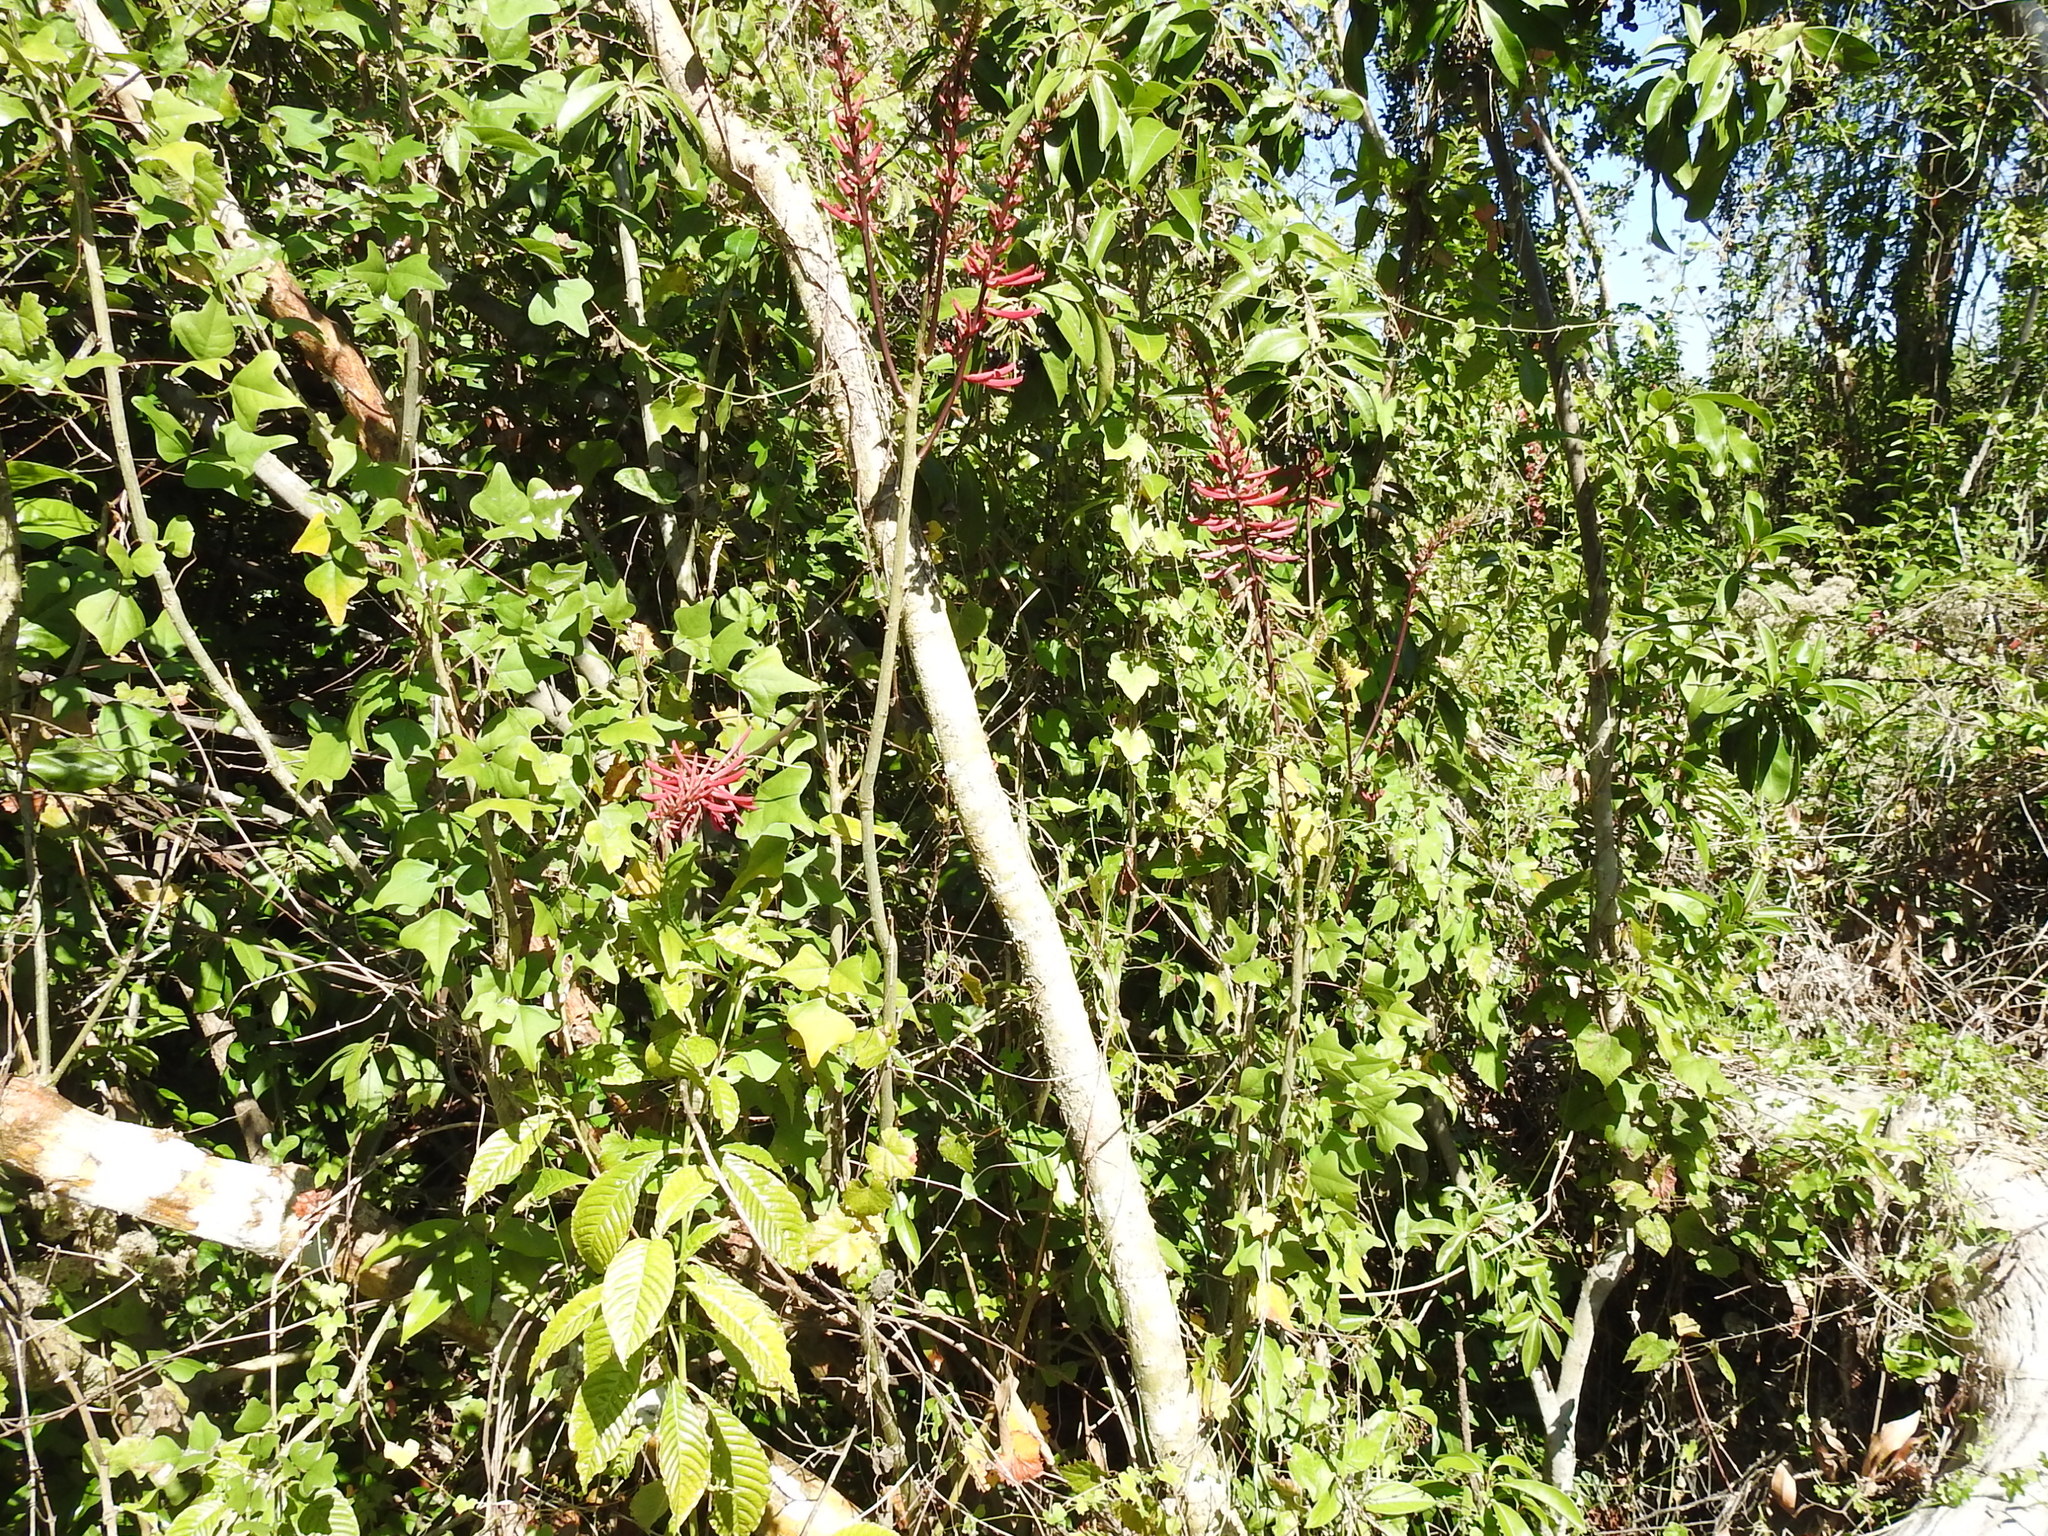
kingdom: Plantae
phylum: Tracheophyta
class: Magnoliopsida
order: Fabales
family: Fabaceae
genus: Erythrina
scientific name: Erythrina herbacea
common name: Coral-bean
